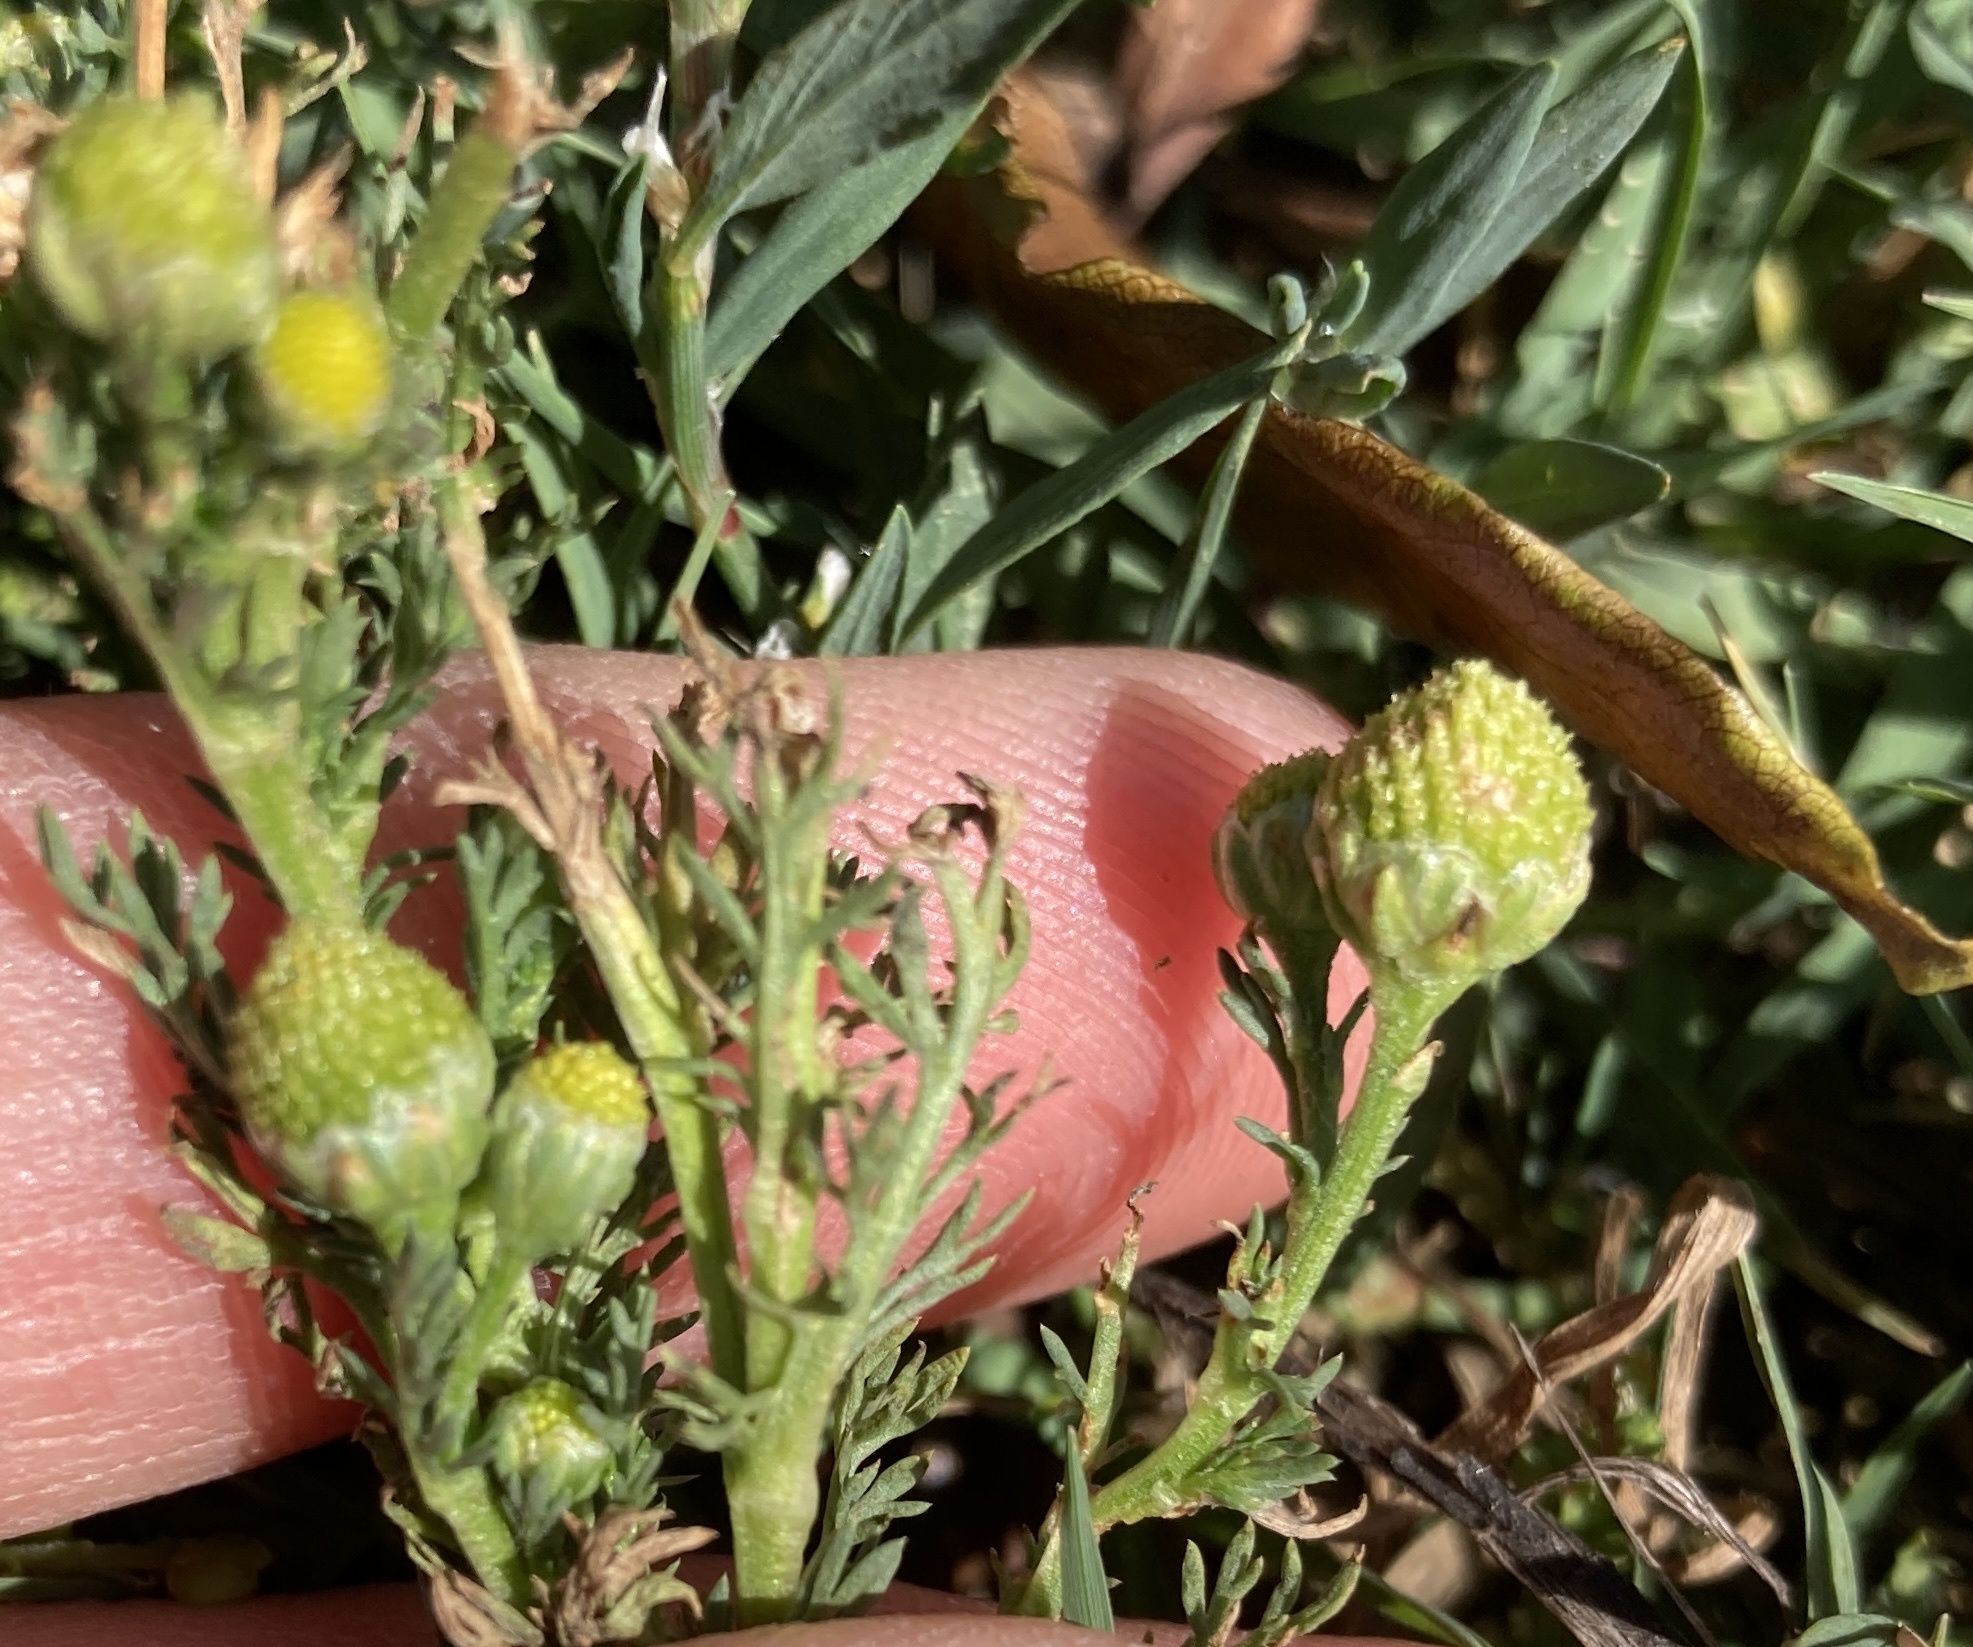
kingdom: Plantae
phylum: Tracheophyta
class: Magnoliopsida
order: Asterales
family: Asteraceae
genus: Matricaria
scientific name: Matricaria discoidea
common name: Disc mayweed
